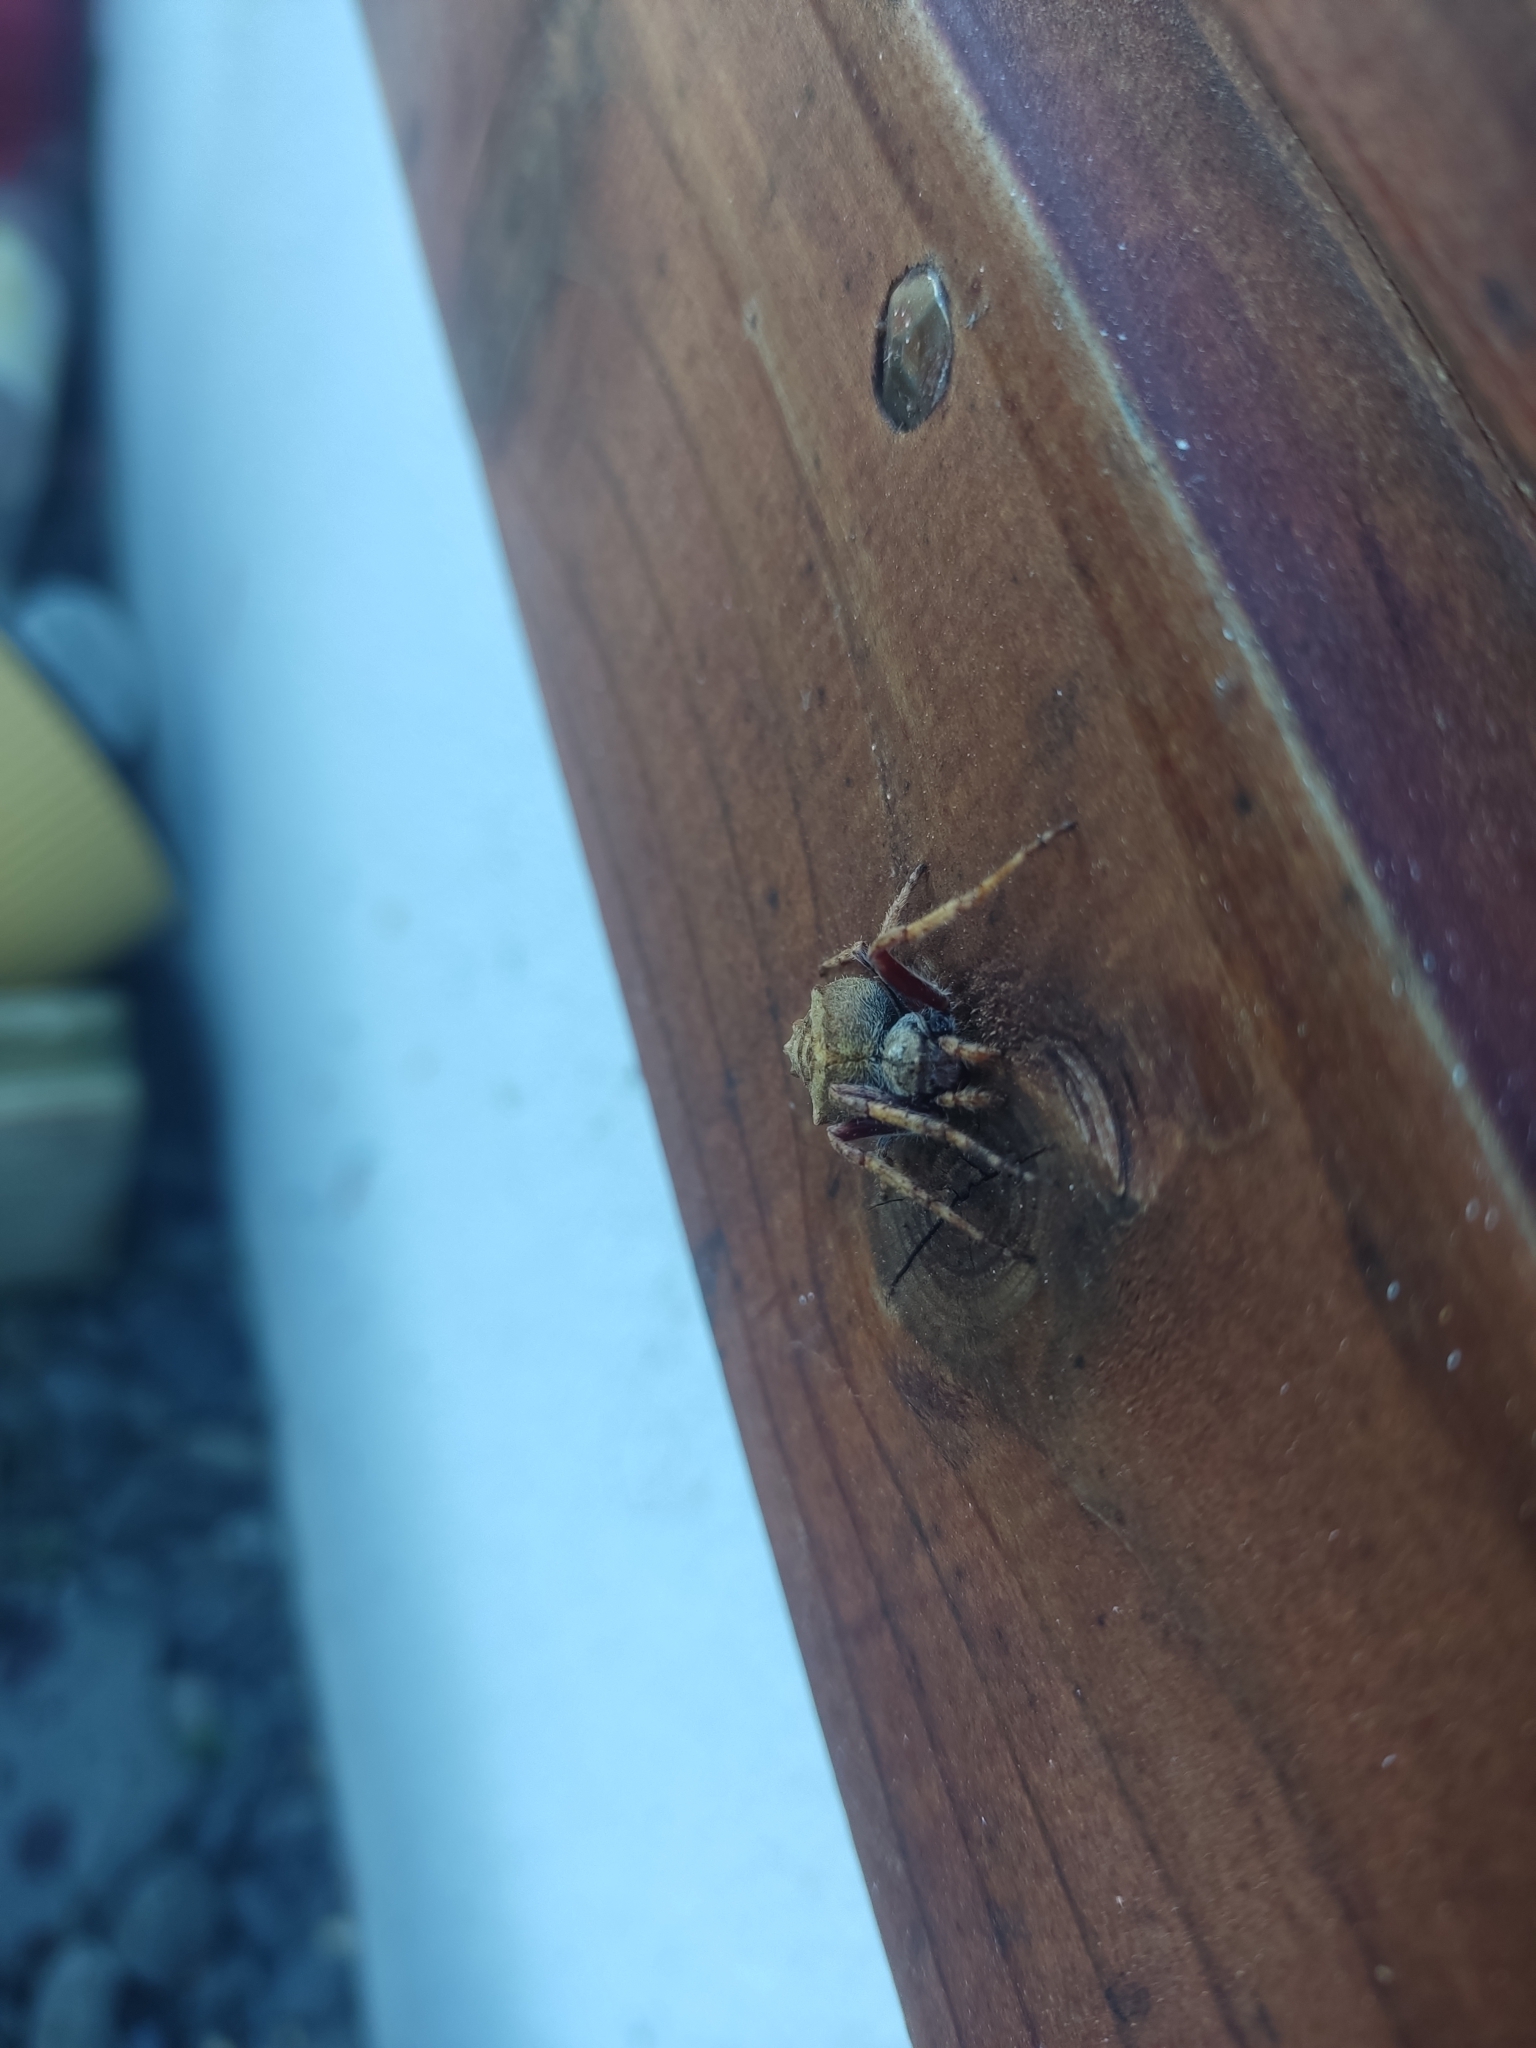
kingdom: Animalia
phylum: Arthropoda
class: Arachnida
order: Araneae
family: Araneidae
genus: Eriophora
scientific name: Eriophora pustulosa
